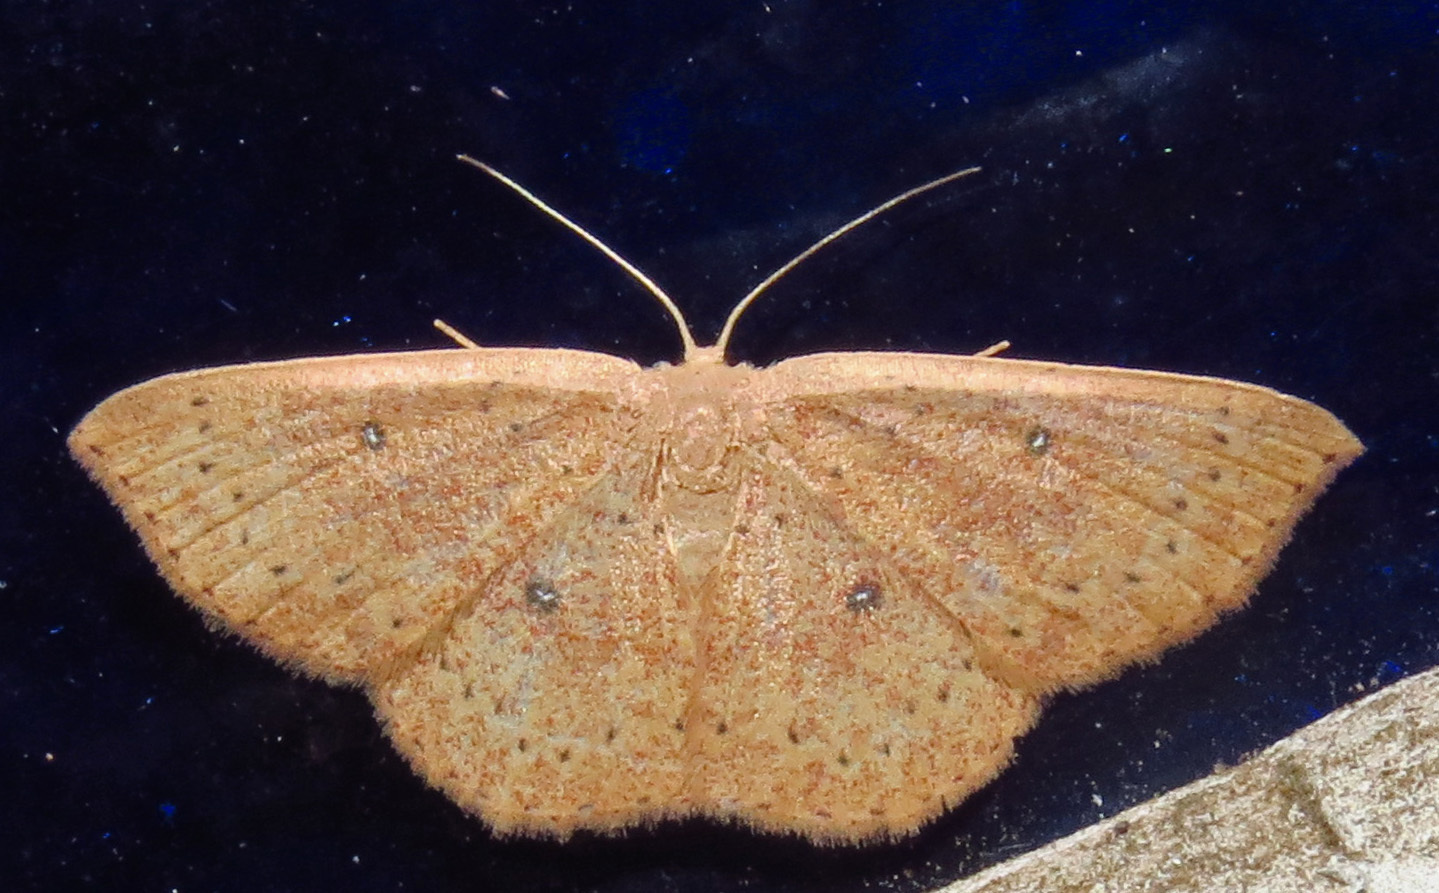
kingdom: Animalia
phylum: Arthropoda
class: Insecta
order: Lepidoptera
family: Geometridae
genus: Cyclophora
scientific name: Cyclophora packardi
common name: Packard's wave
